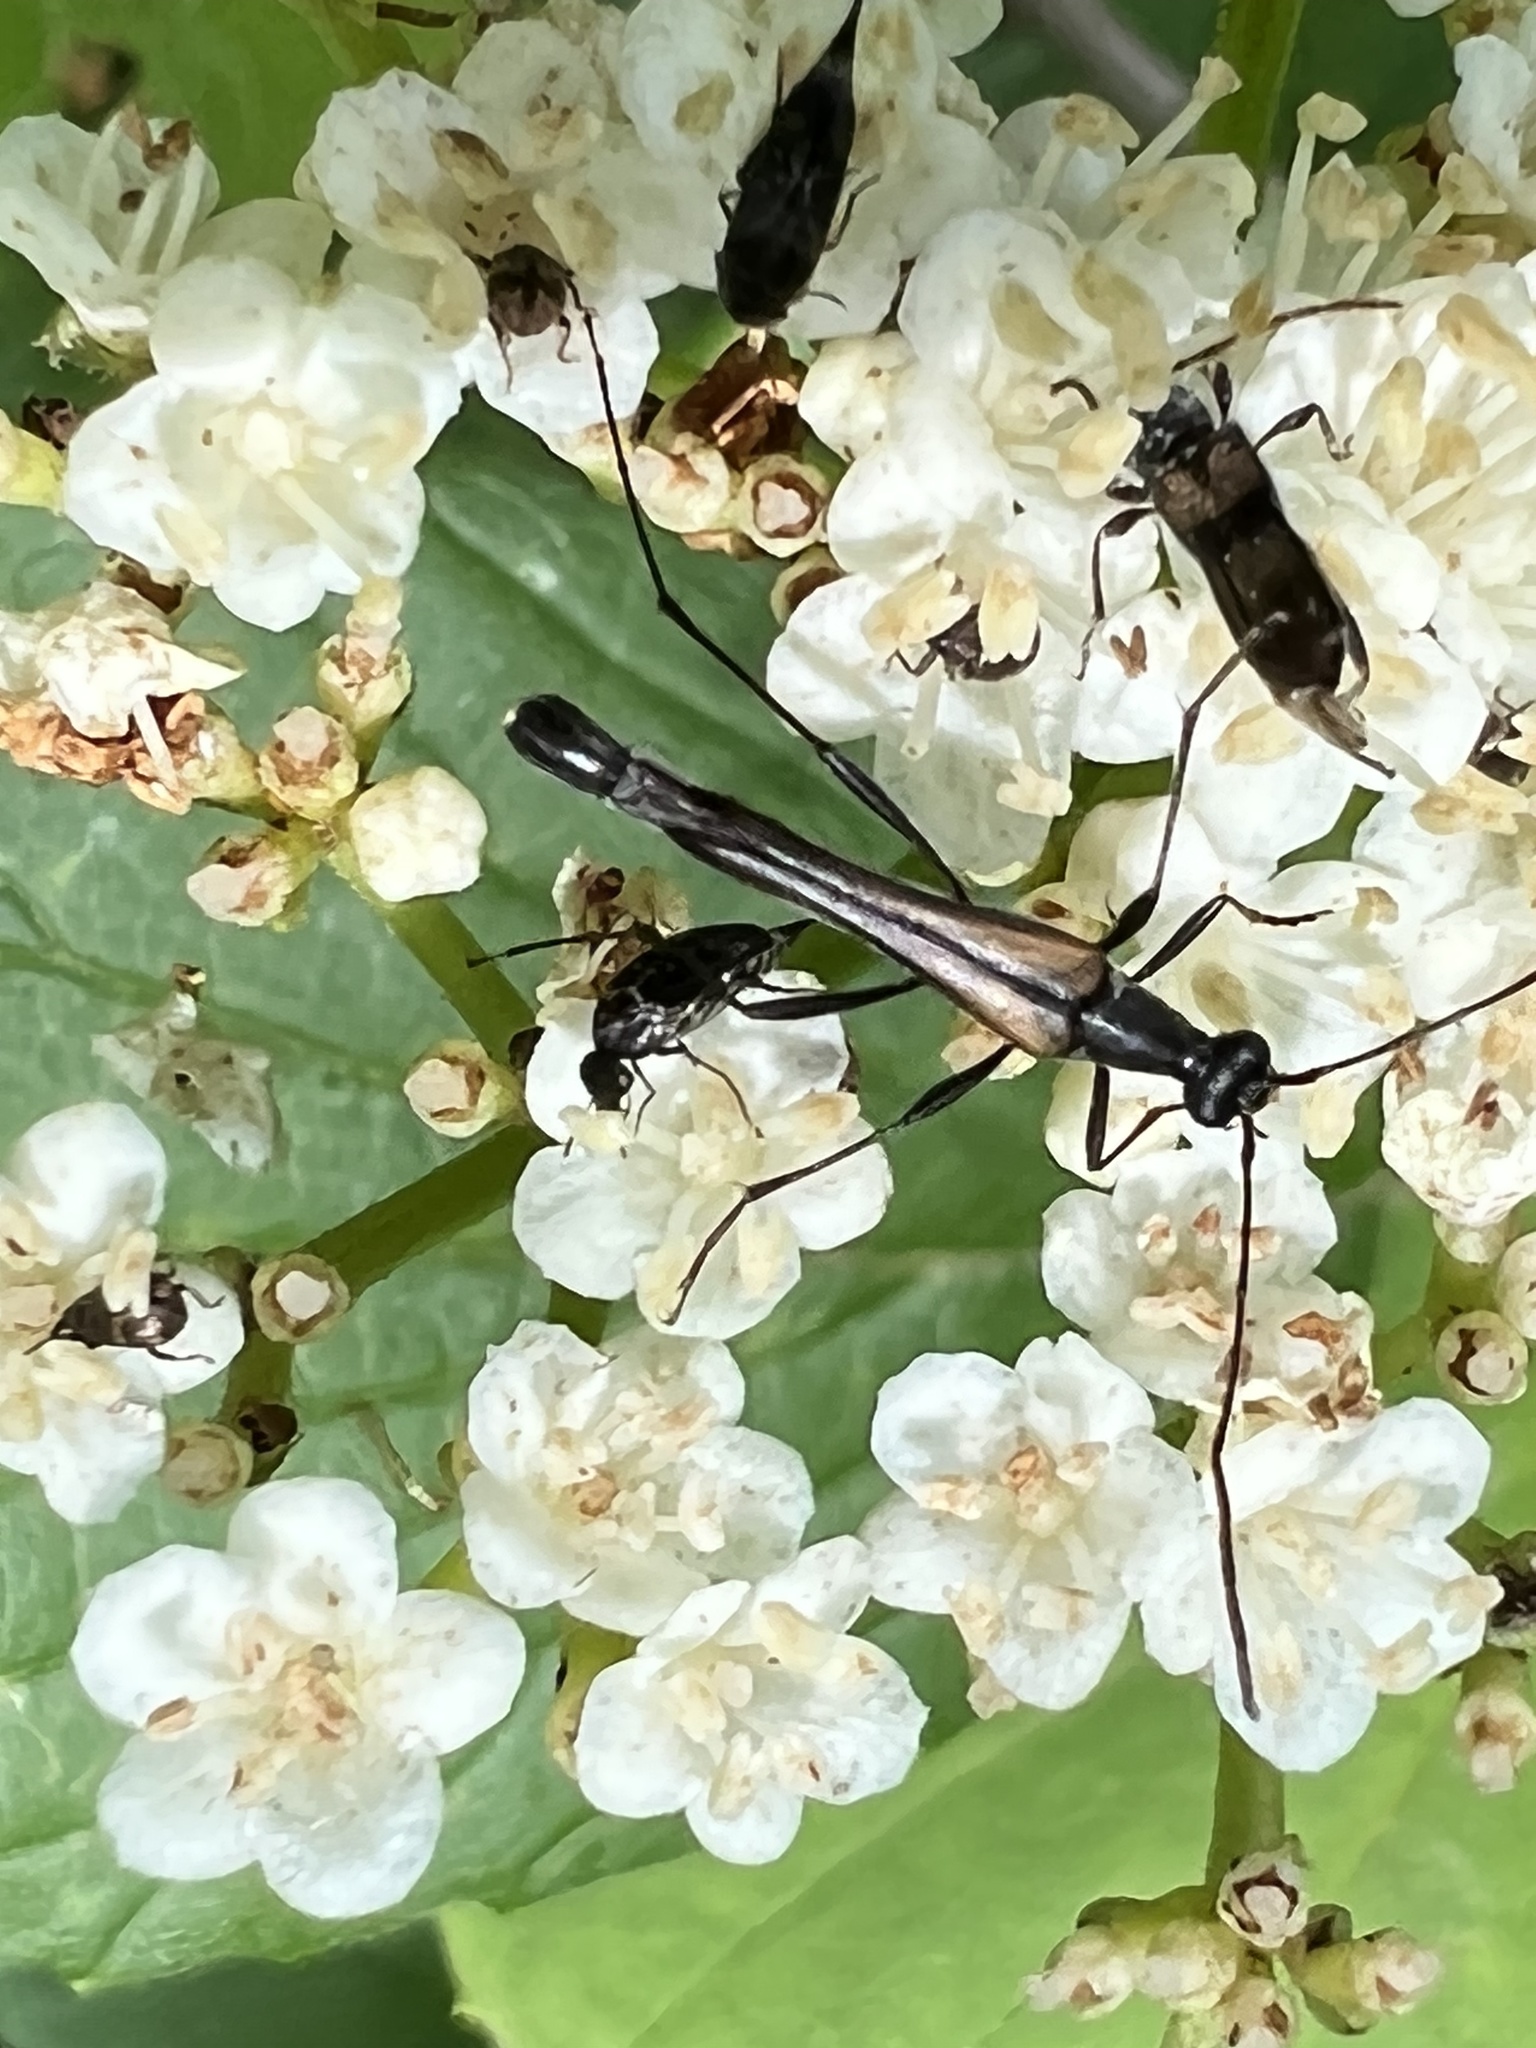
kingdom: Animalia
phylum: Arthropoda
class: Insecta
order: Coleoptera
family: Cerambycidae
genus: Strangalia
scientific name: Strangalia acuminata
